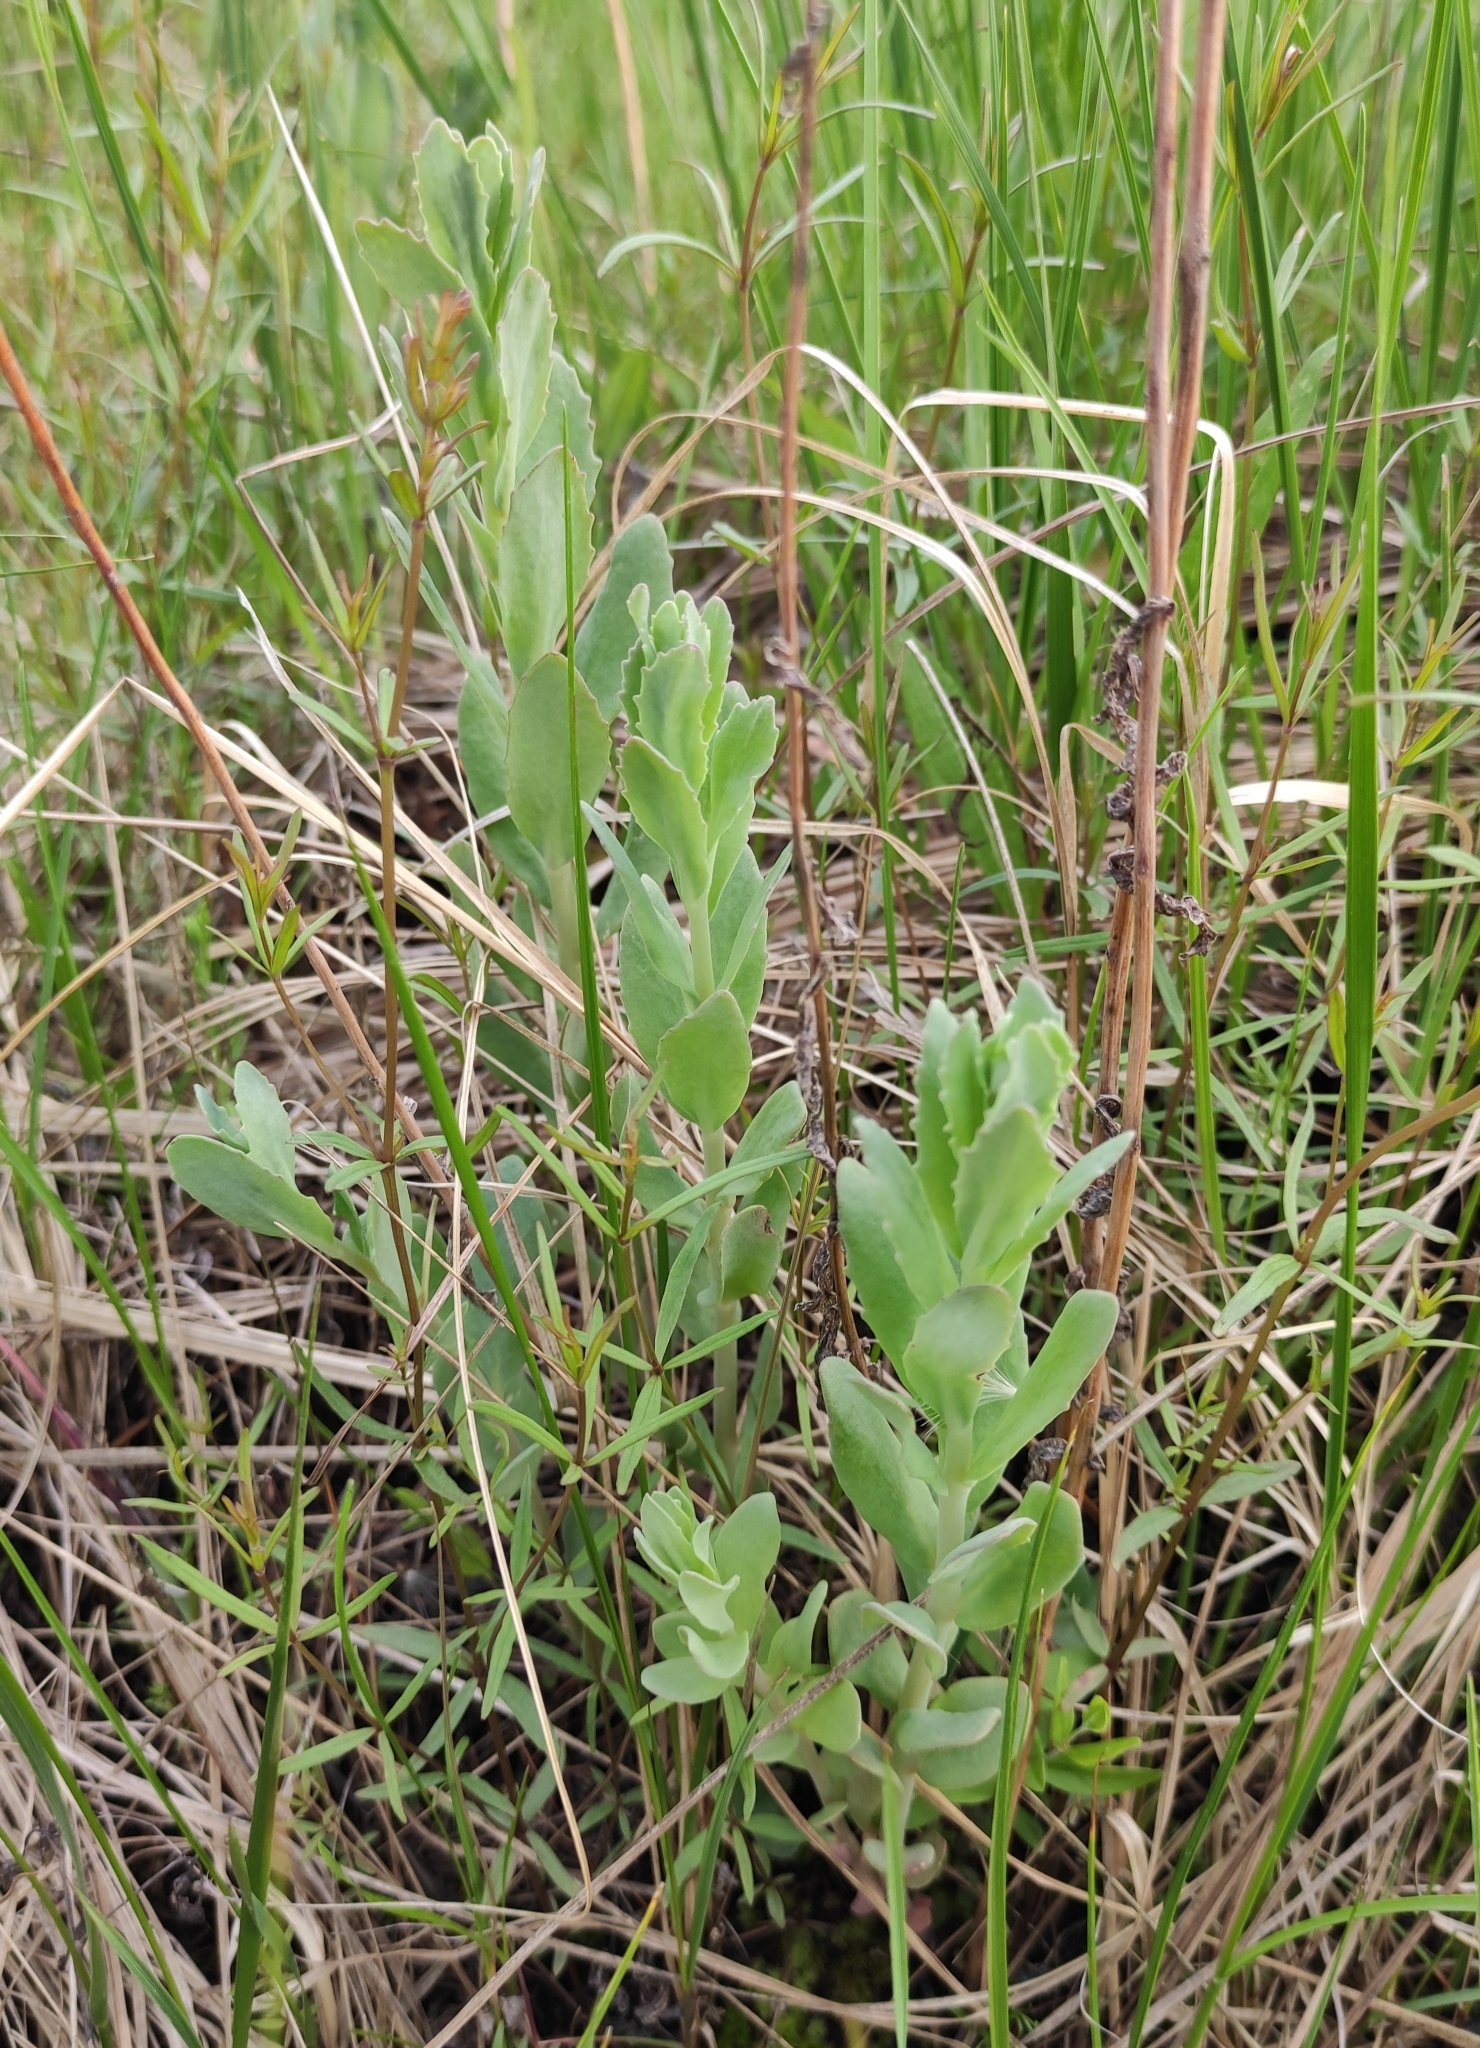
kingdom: Plantae
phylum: Tracheophyta
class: Magnoliopsida
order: Saxifragales
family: Crassulaceae
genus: Hylotelephium
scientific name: Hylotelephium telephium
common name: Live-forever
